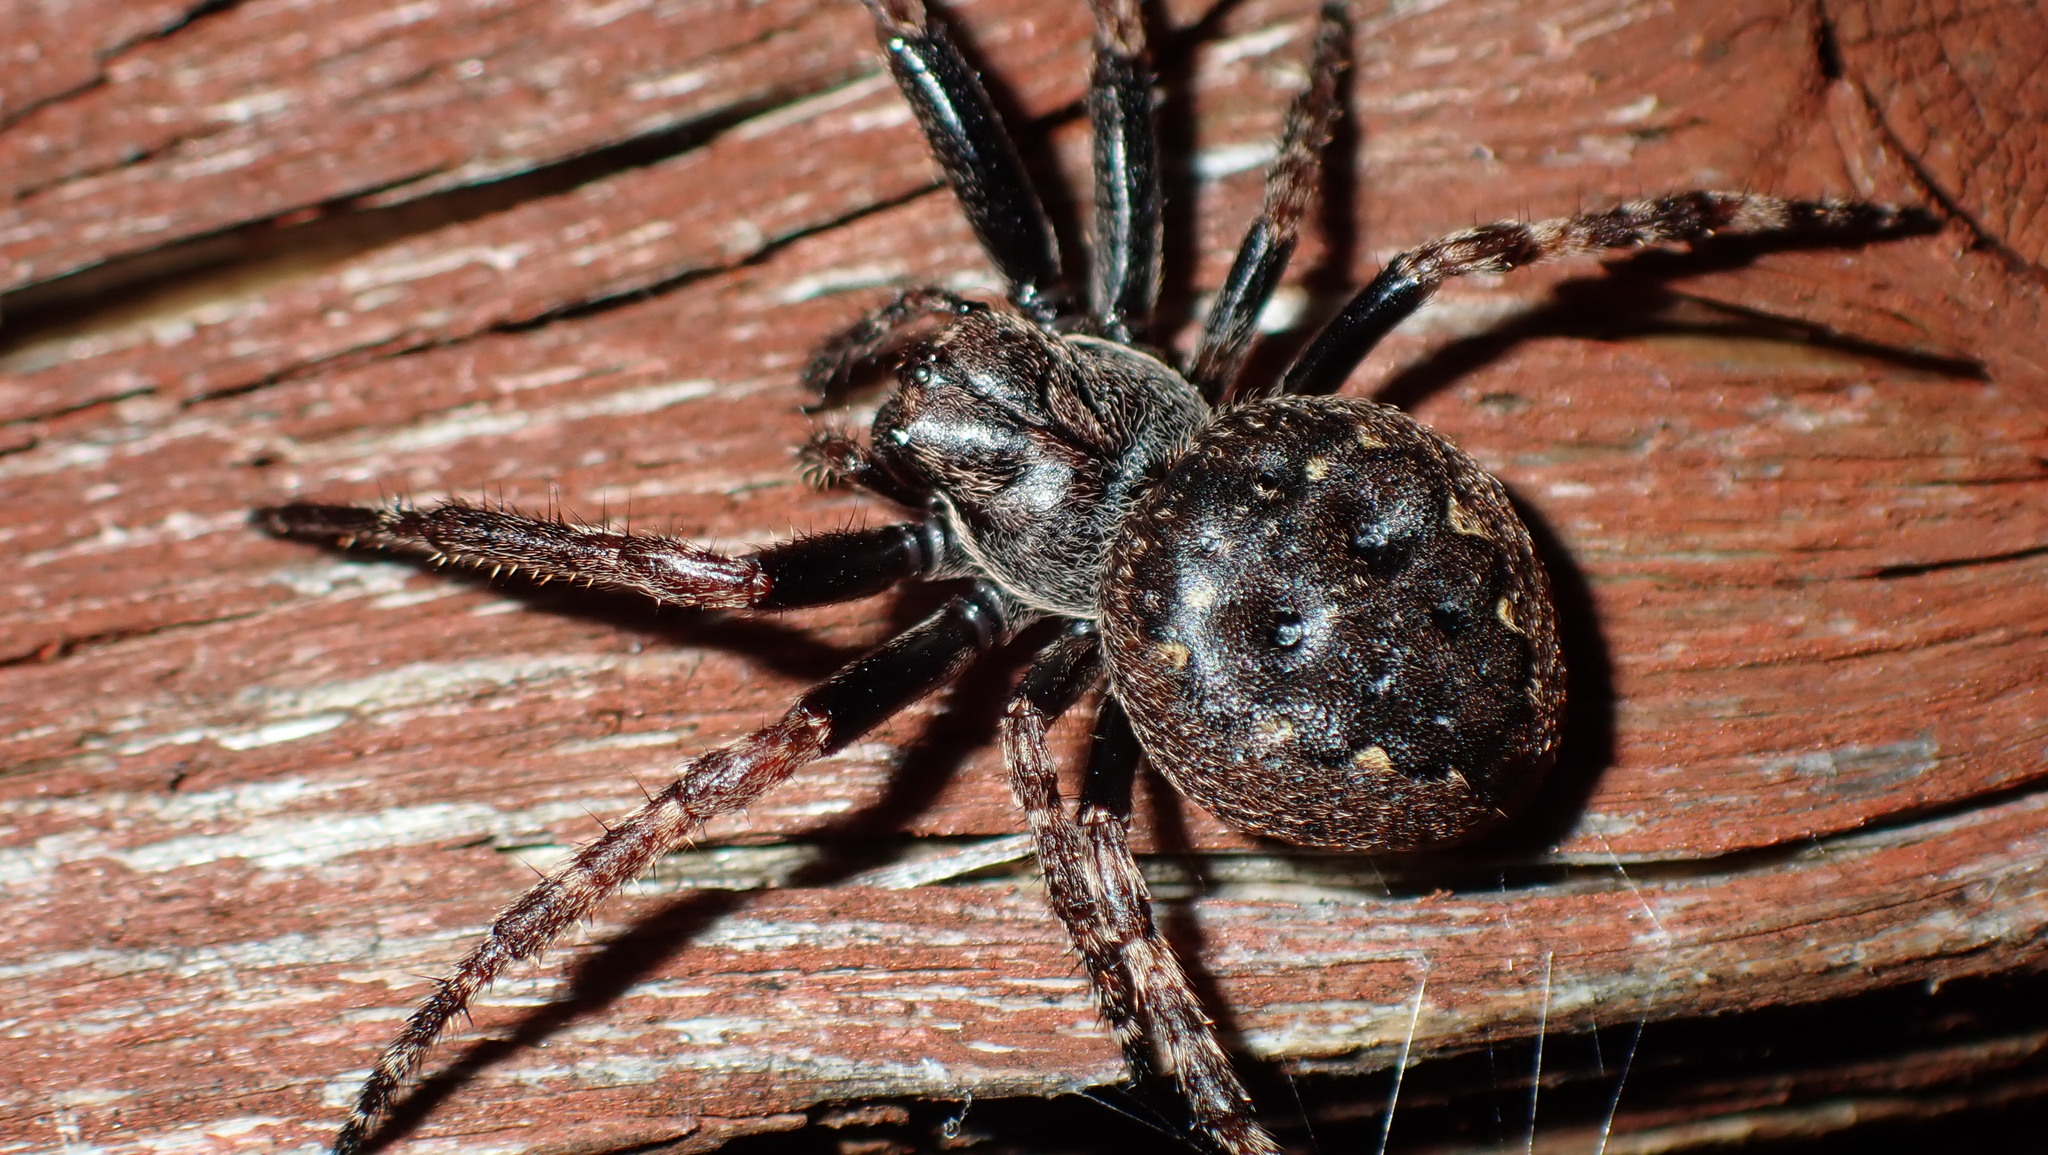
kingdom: Animalia
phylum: Arthropoda
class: Arachnida
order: Araneae
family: Araneidae
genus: Nuctenea
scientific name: Nuctenea umbratica
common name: Toad spider
